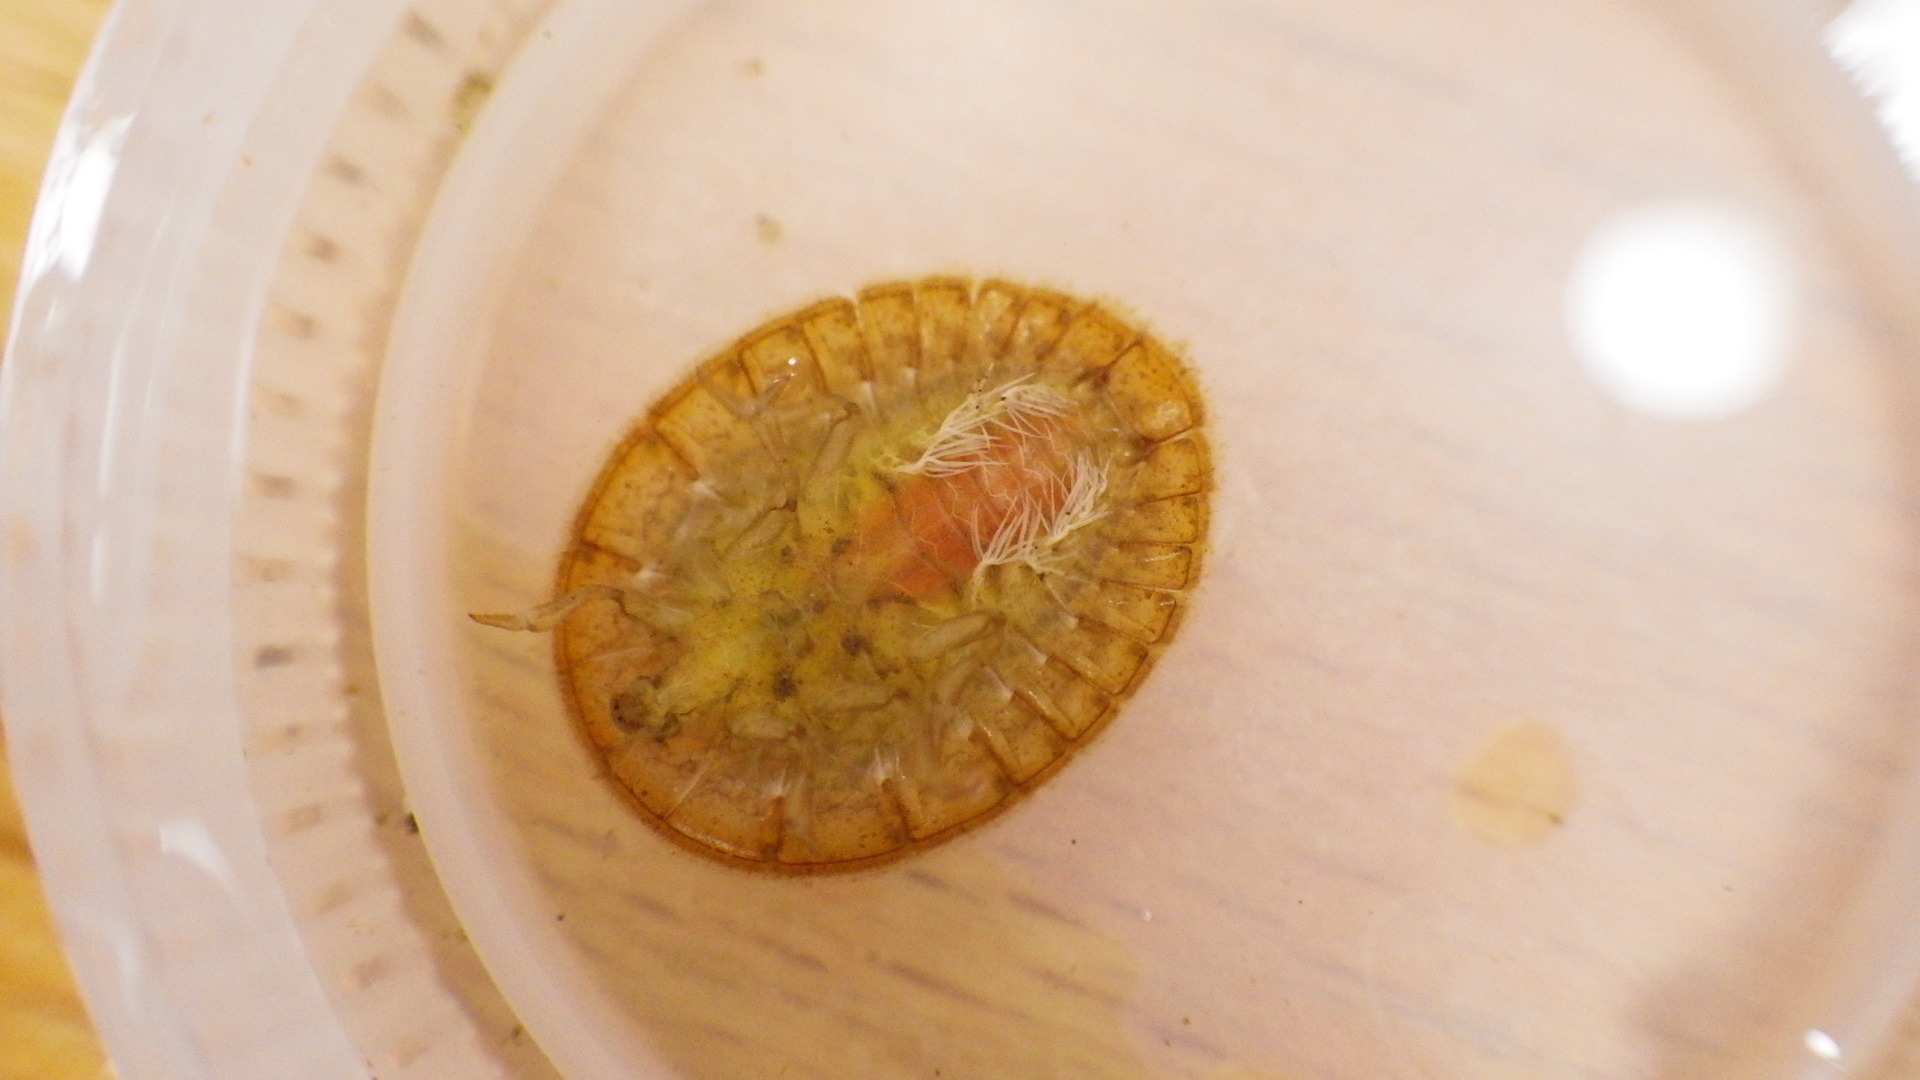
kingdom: Animalia
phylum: Arthropoda
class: Insecta
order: Coleoptera
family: Psephenidae
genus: Psephenus
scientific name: Psephenus herricki
